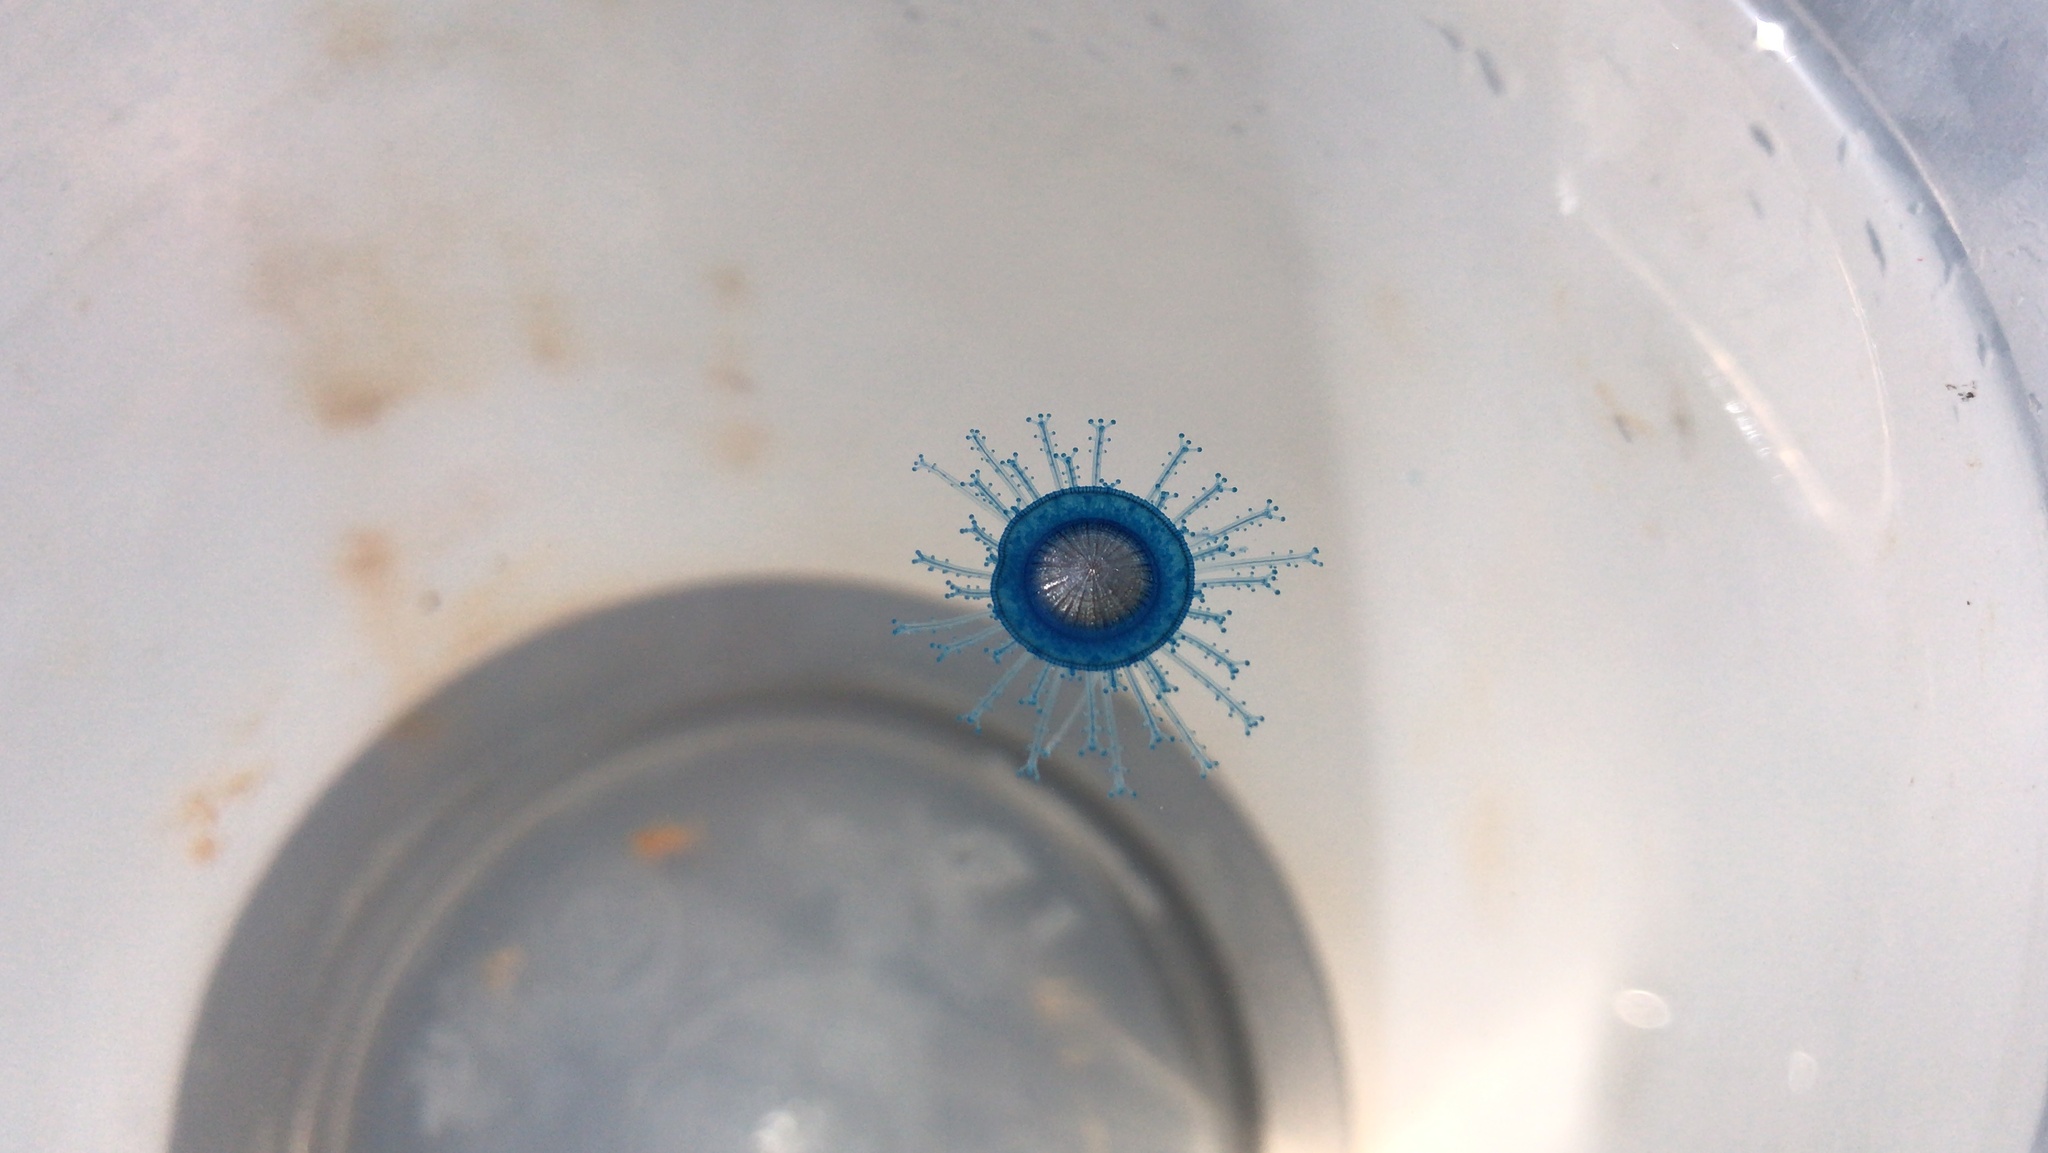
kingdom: Animalia
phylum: Cnidaria
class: Hydrozoa
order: Anthoathecata
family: Porpitidae
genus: Porpita
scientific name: Porpita porpita
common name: Blue button
